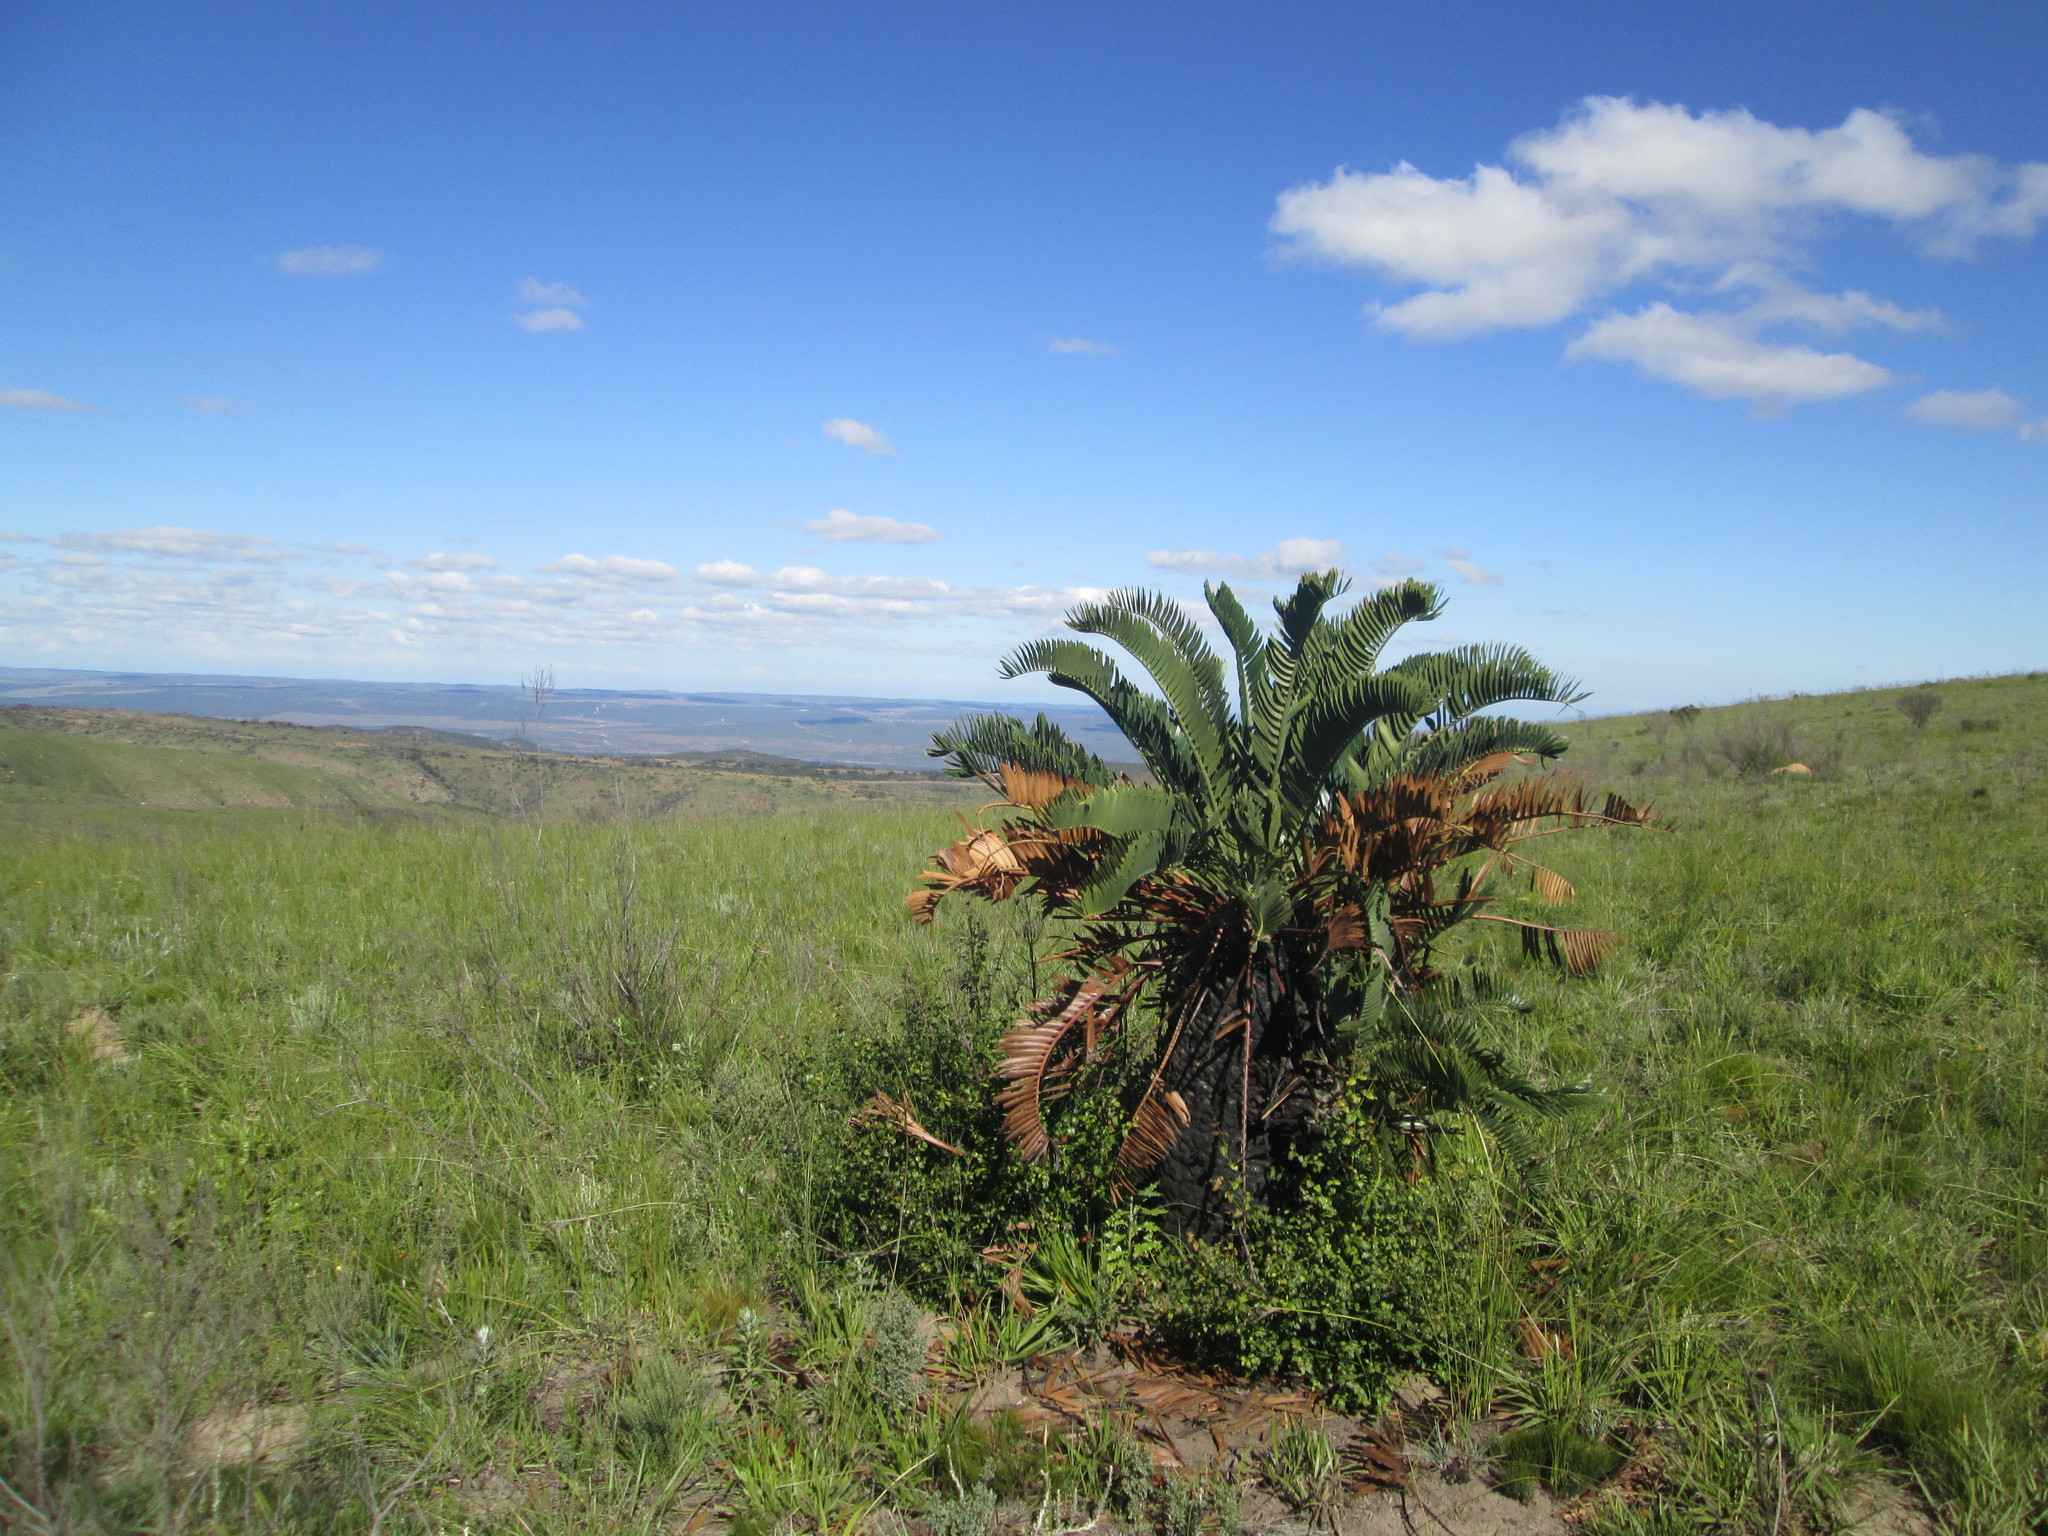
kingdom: Plantae
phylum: Tracheophyta
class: Cycadopsida
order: Cycadales
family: Zamiaceae
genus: Encephalartos
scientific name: Encephalartos longifolius
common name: Suurberg cycad
